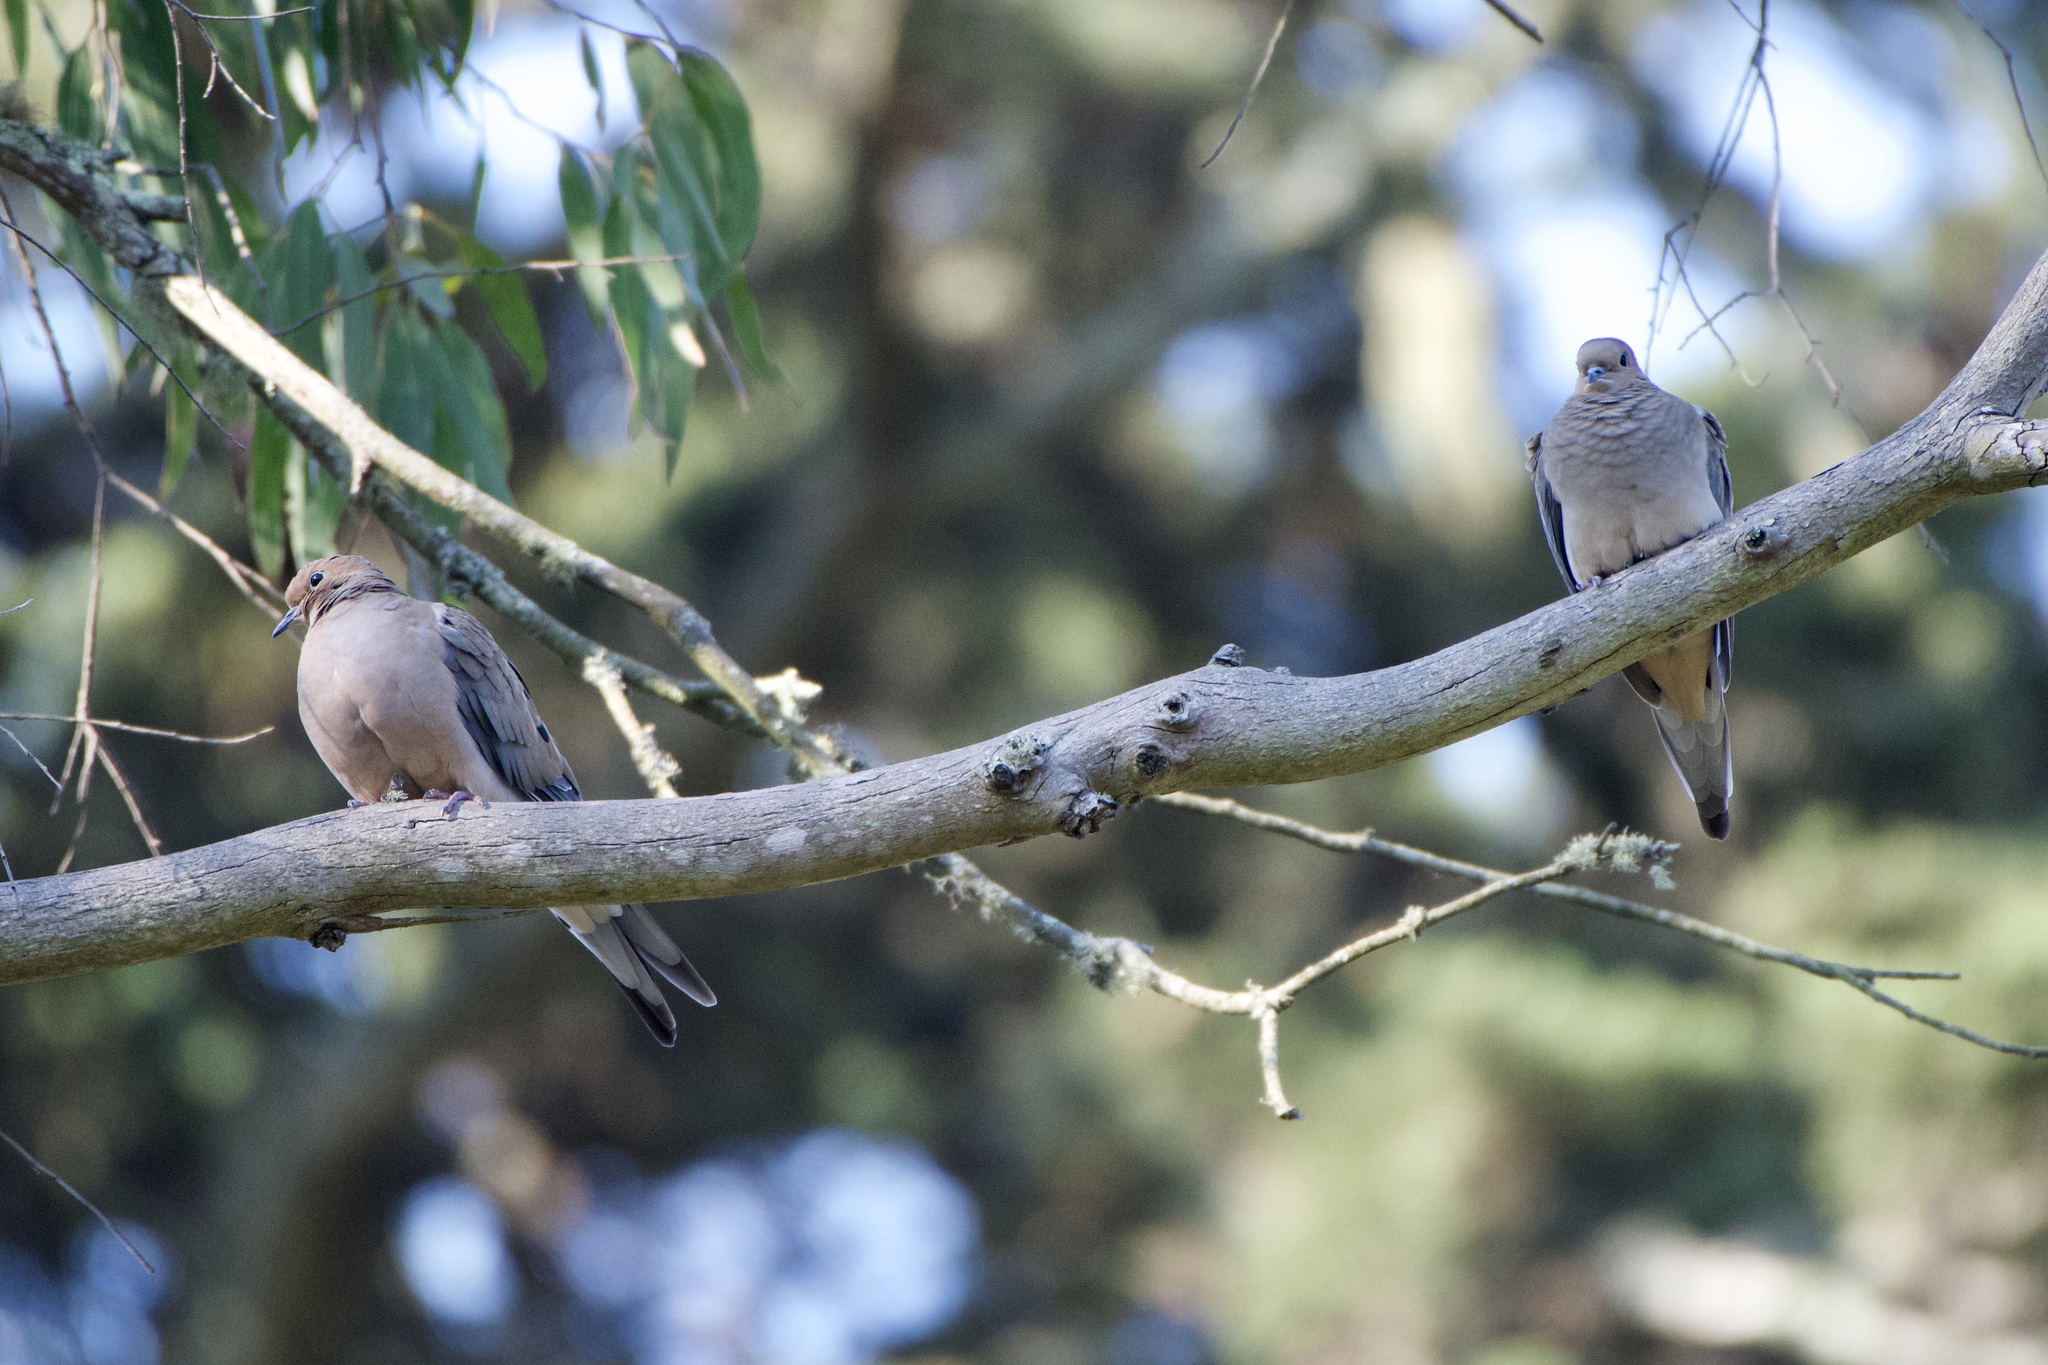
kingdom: Animalia
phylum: Chordata
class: Aves
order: Columbiformes
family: Columbidae
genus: Zenaida
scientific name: Zenaida macroura
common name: Mourning dove
